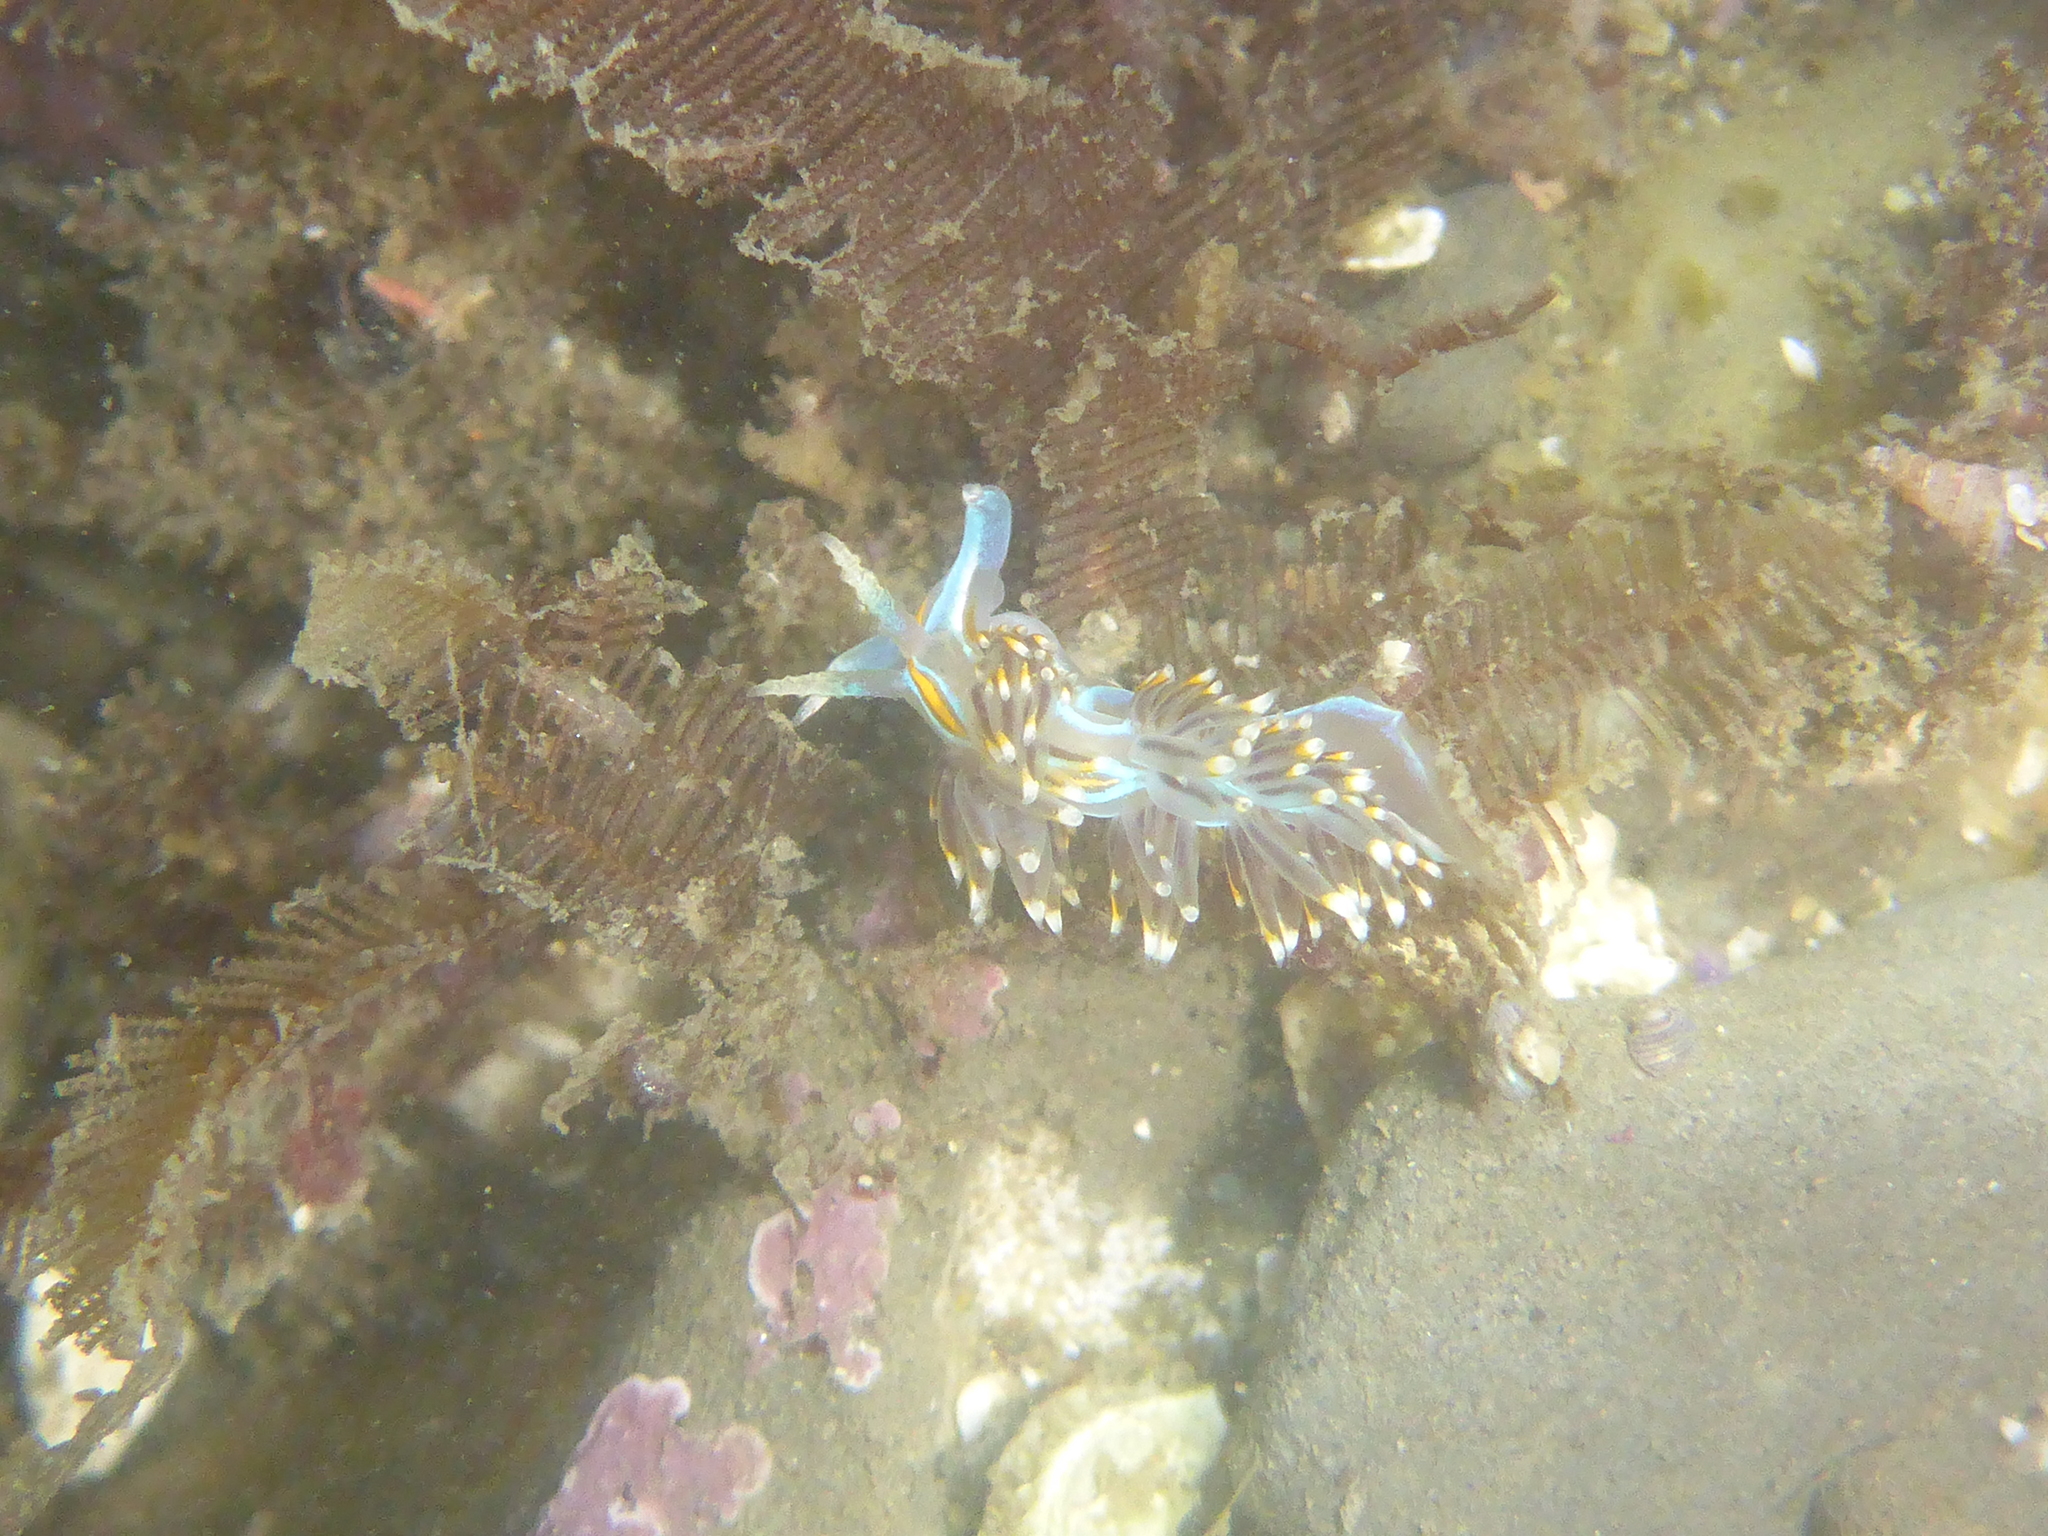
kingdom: Animalia
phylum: Mollusca
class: Gastropoda
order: Nudibranchia
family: Myrrhinidae
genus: Hermissenda
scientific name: Hermissenda opalescens
